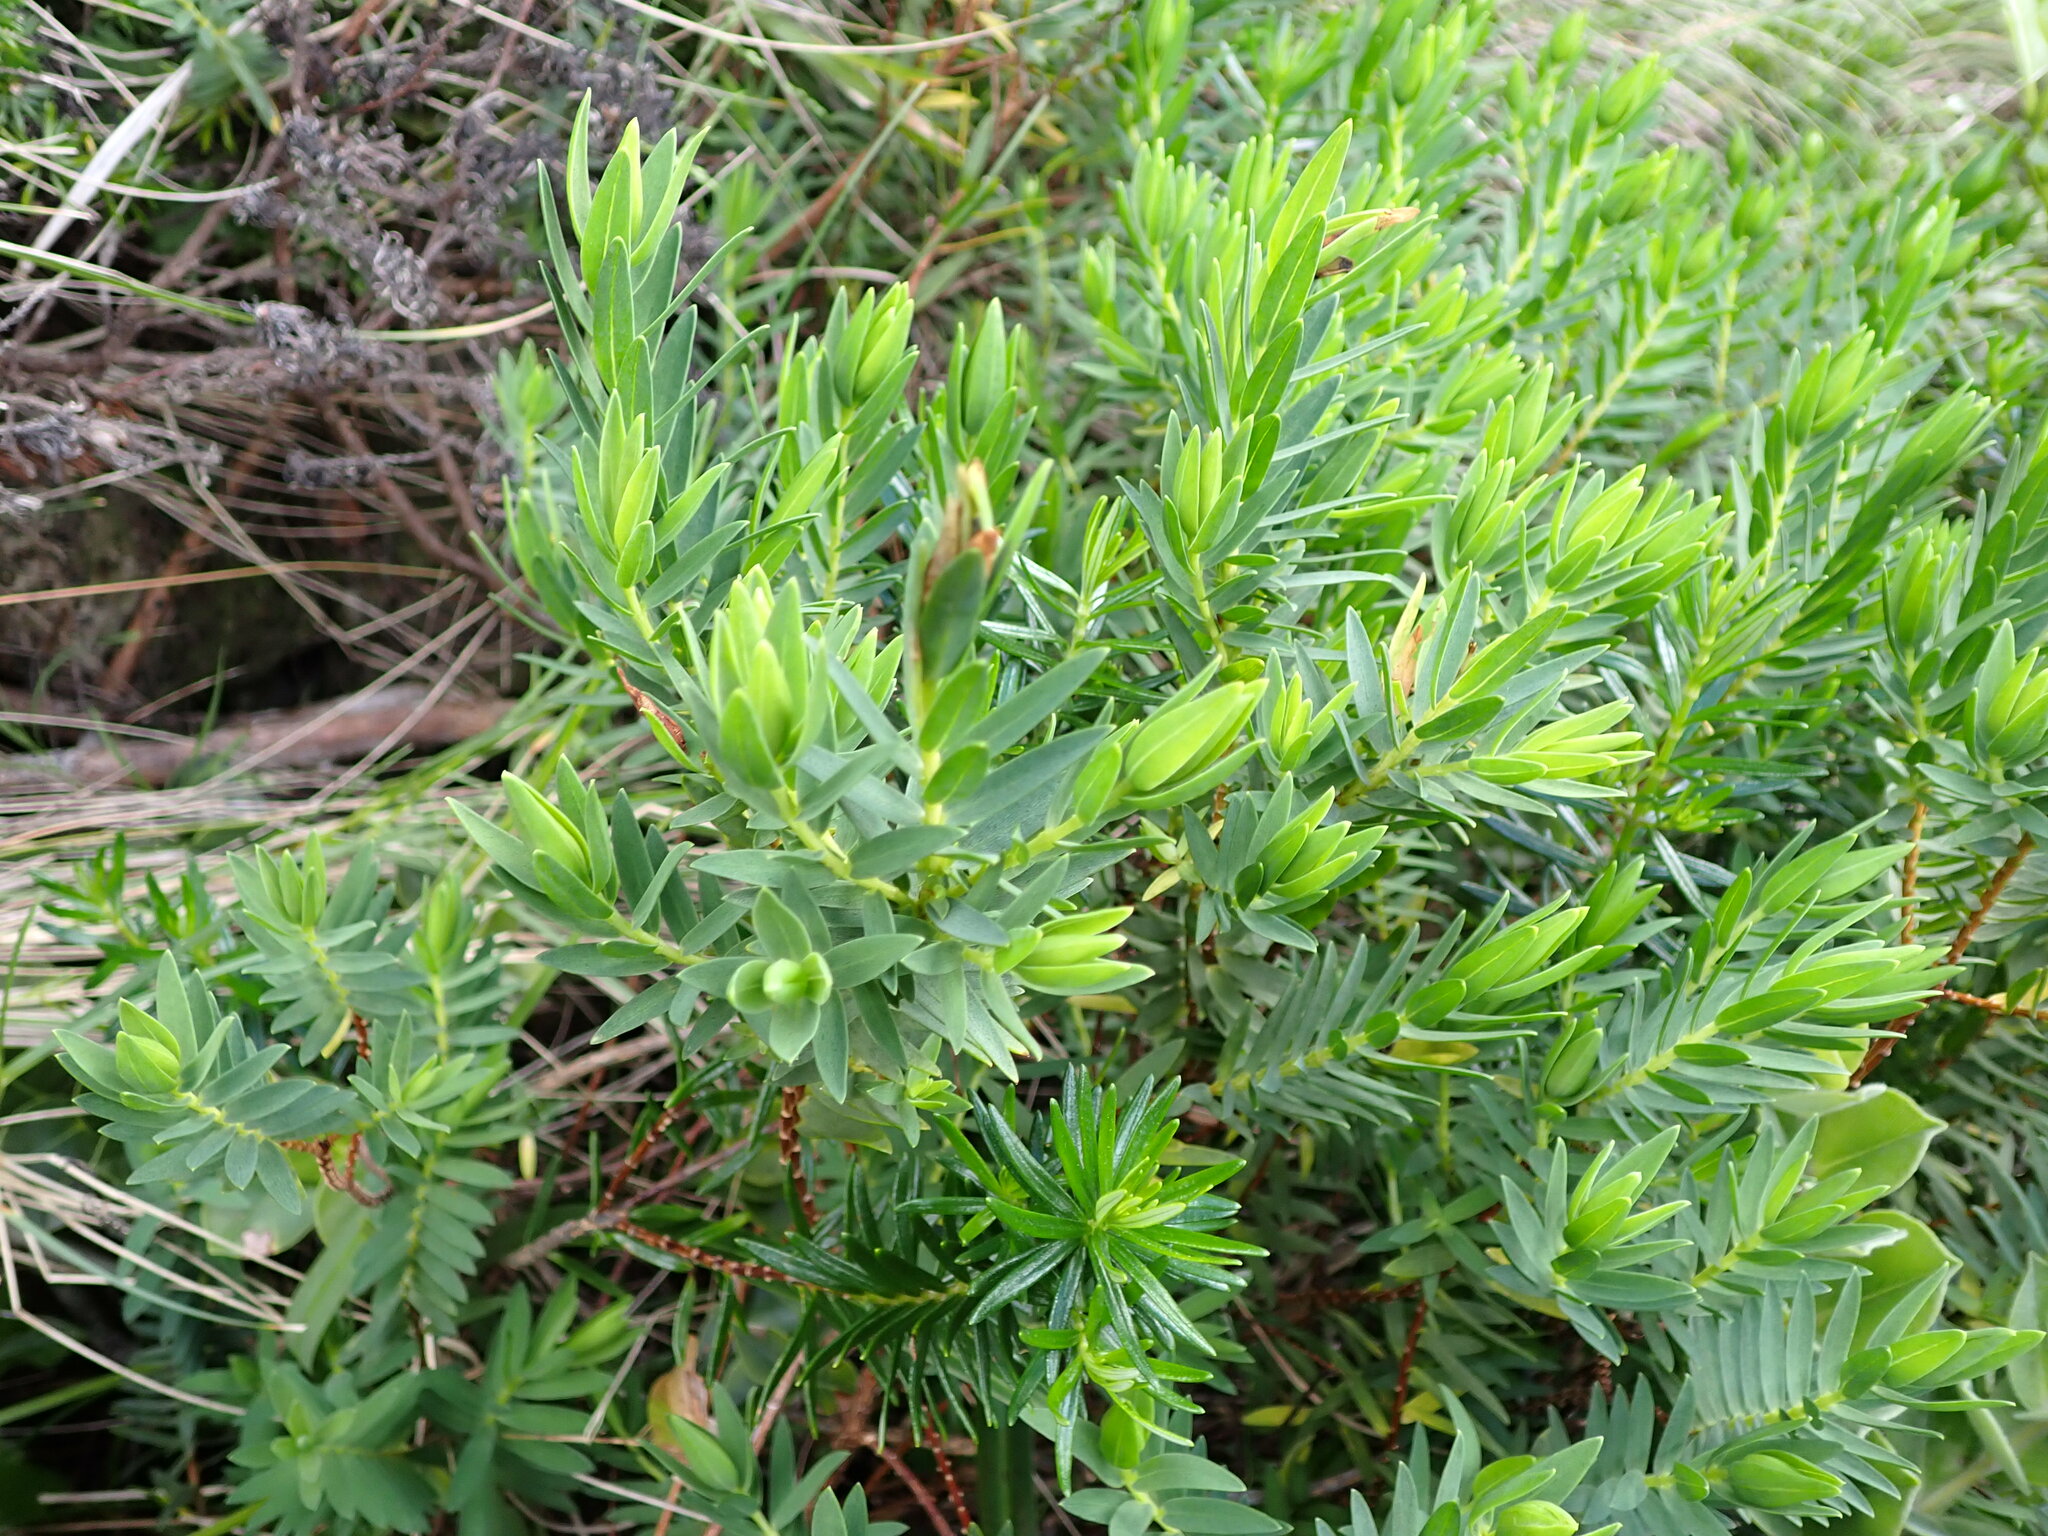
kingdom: Plantae
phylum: Tracheophyta
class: Magnoliopsida
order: Malvales
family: Thymelaeaceae
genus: Pimelea
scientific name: Pimelea congesta
